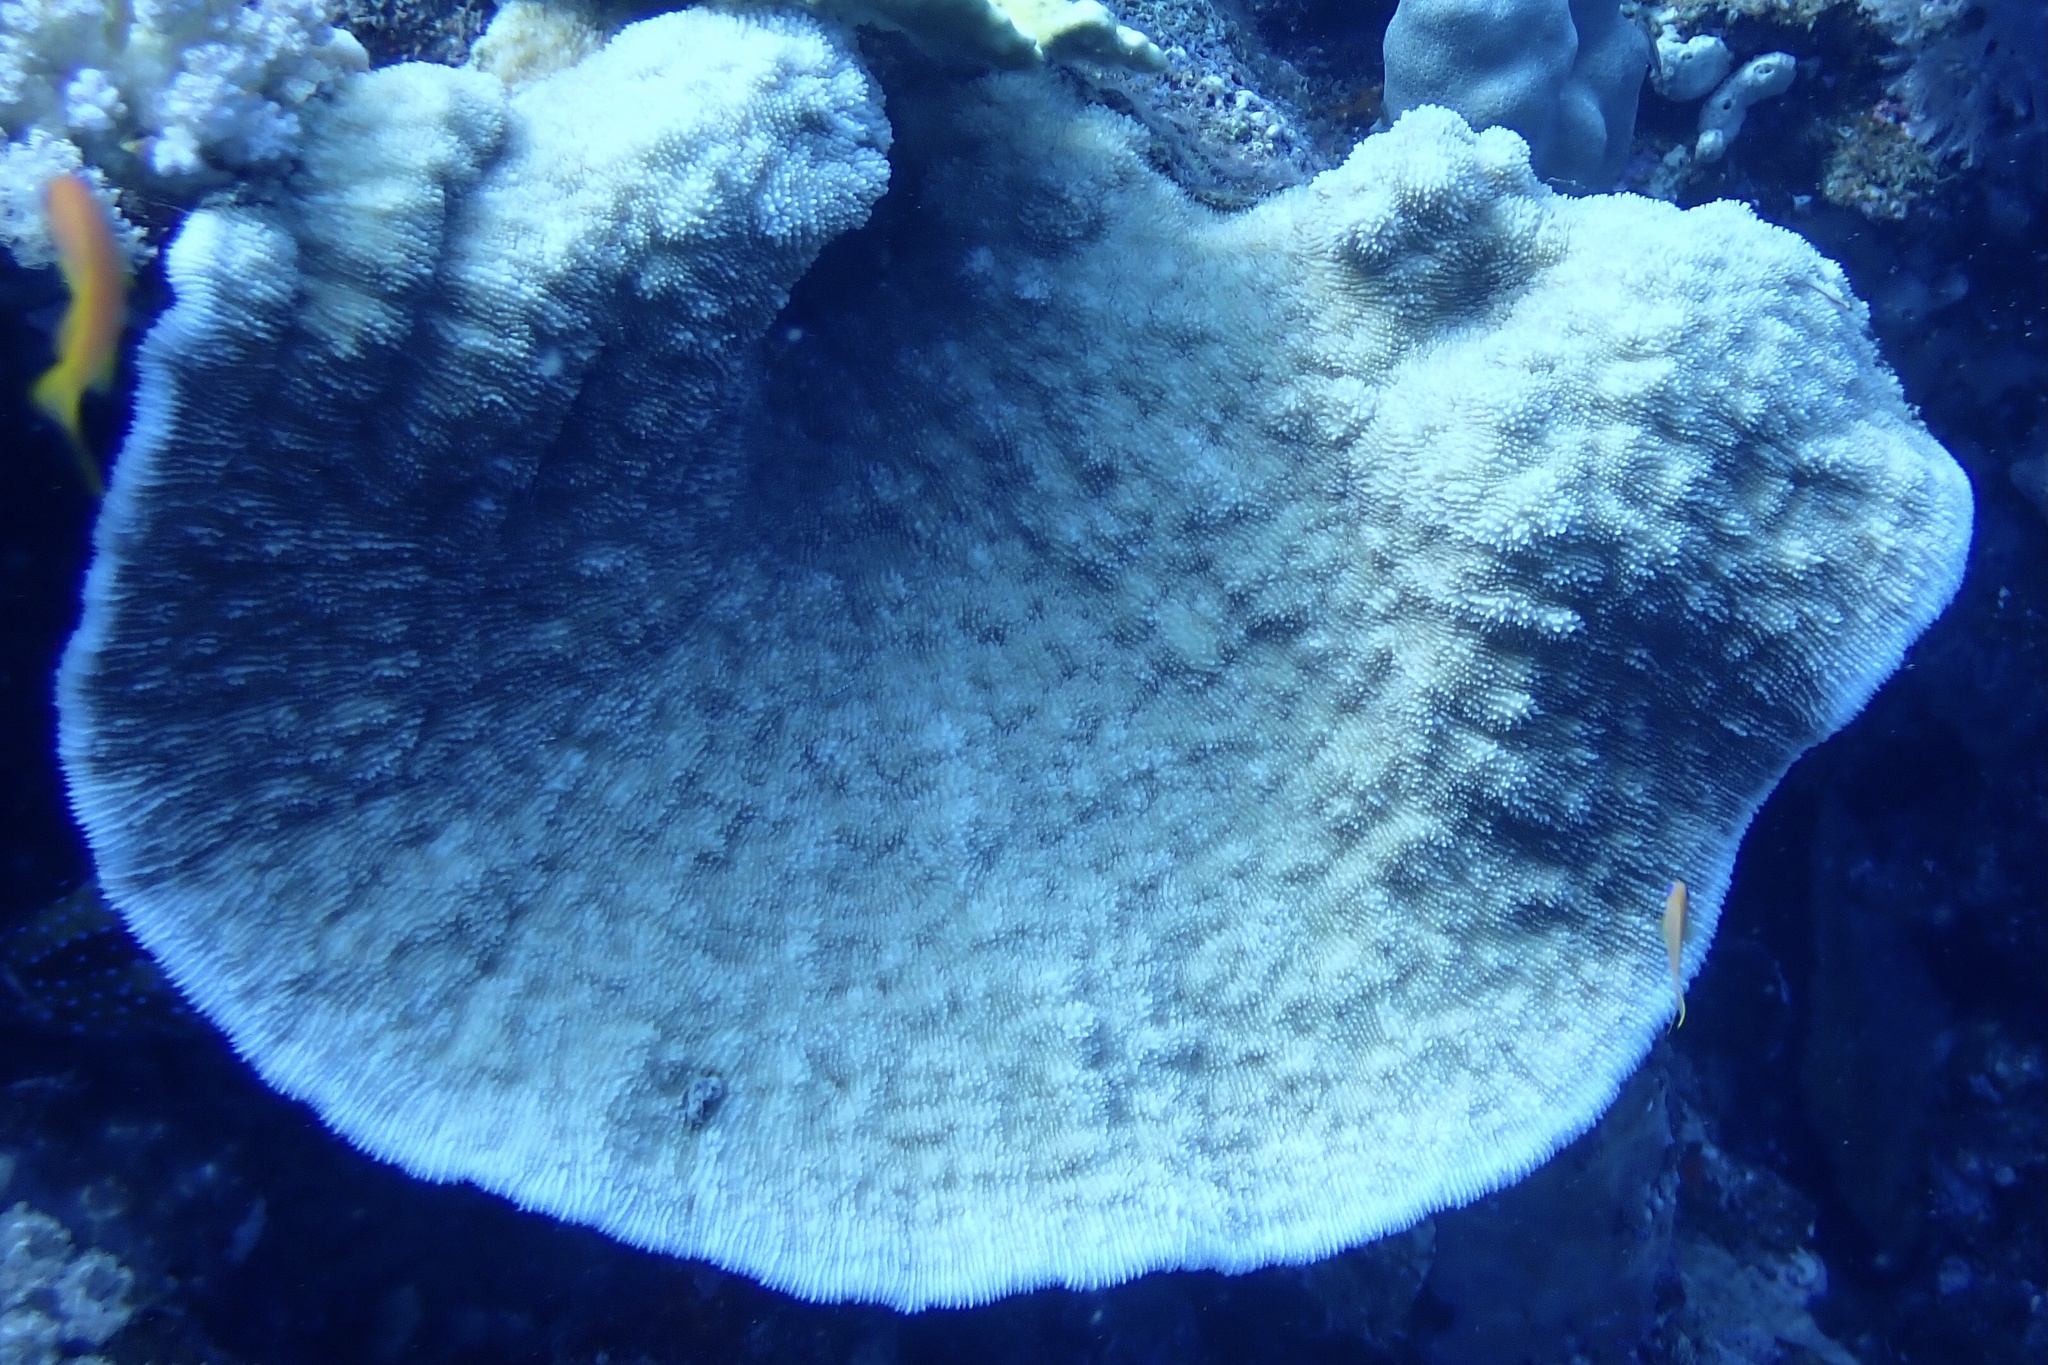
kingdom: Animalia
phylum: Cnidaria
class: Anthozoa
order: Scleractinia
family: Fungiidae
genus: Podabacia
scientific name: Podabacia sinai
